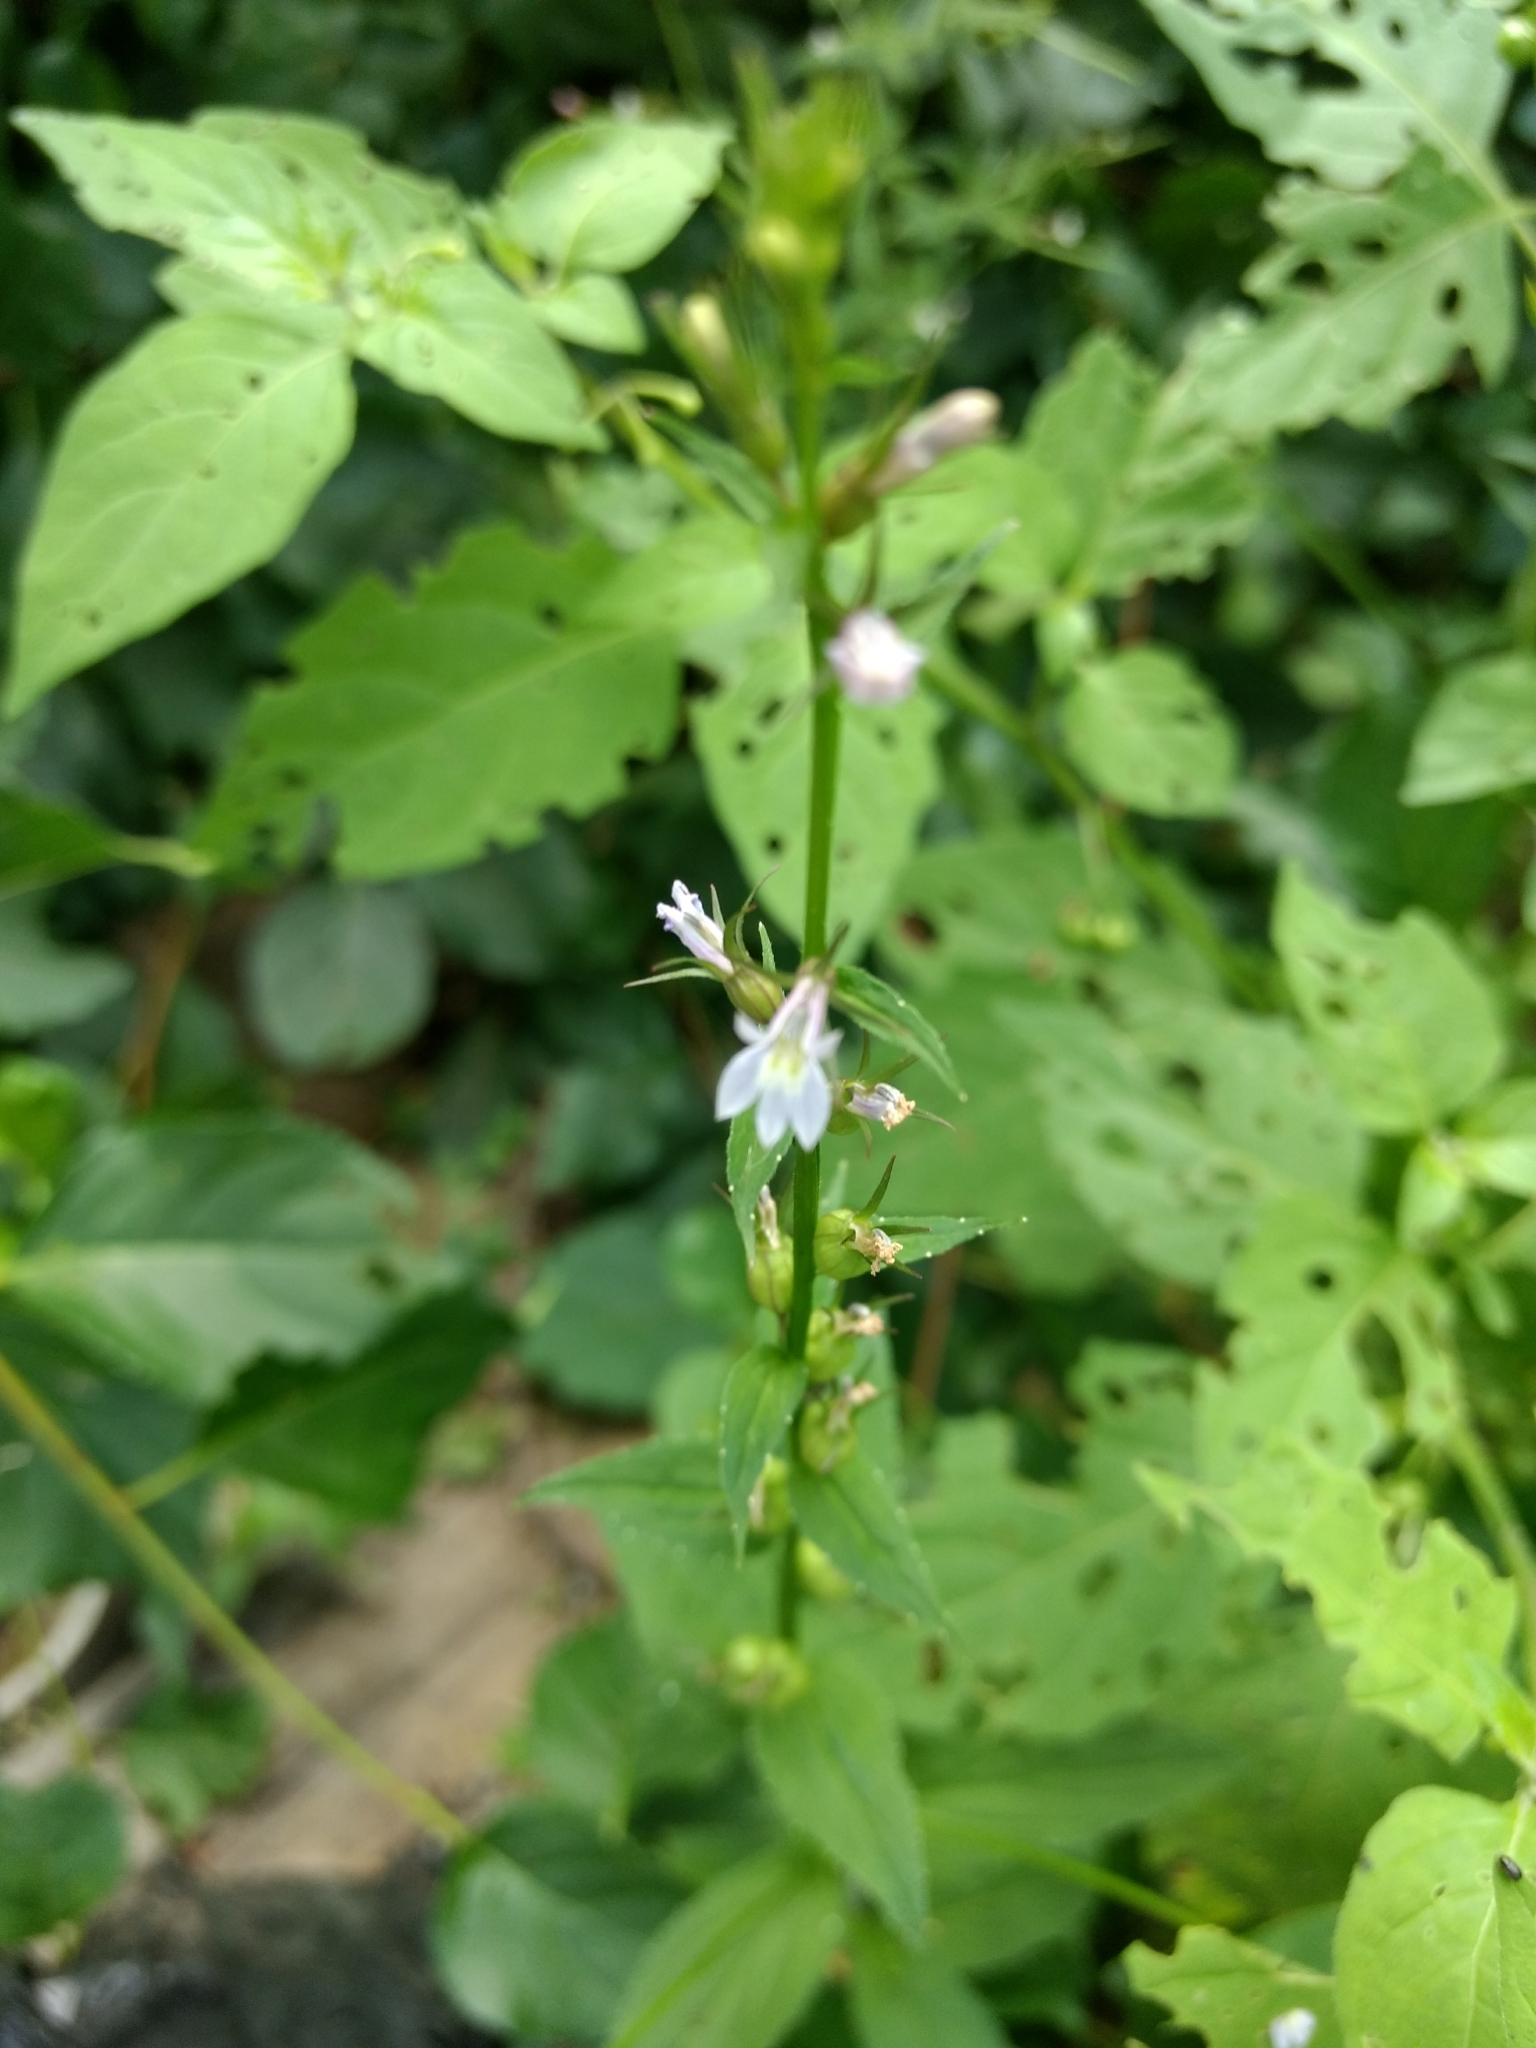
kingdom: Plantae
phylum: Tracheophyta
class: Magnoliopsida
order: Asterales
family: Campanulaceae
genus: Lobelia
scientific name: Lobelia inflata
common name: Indian tobacco
